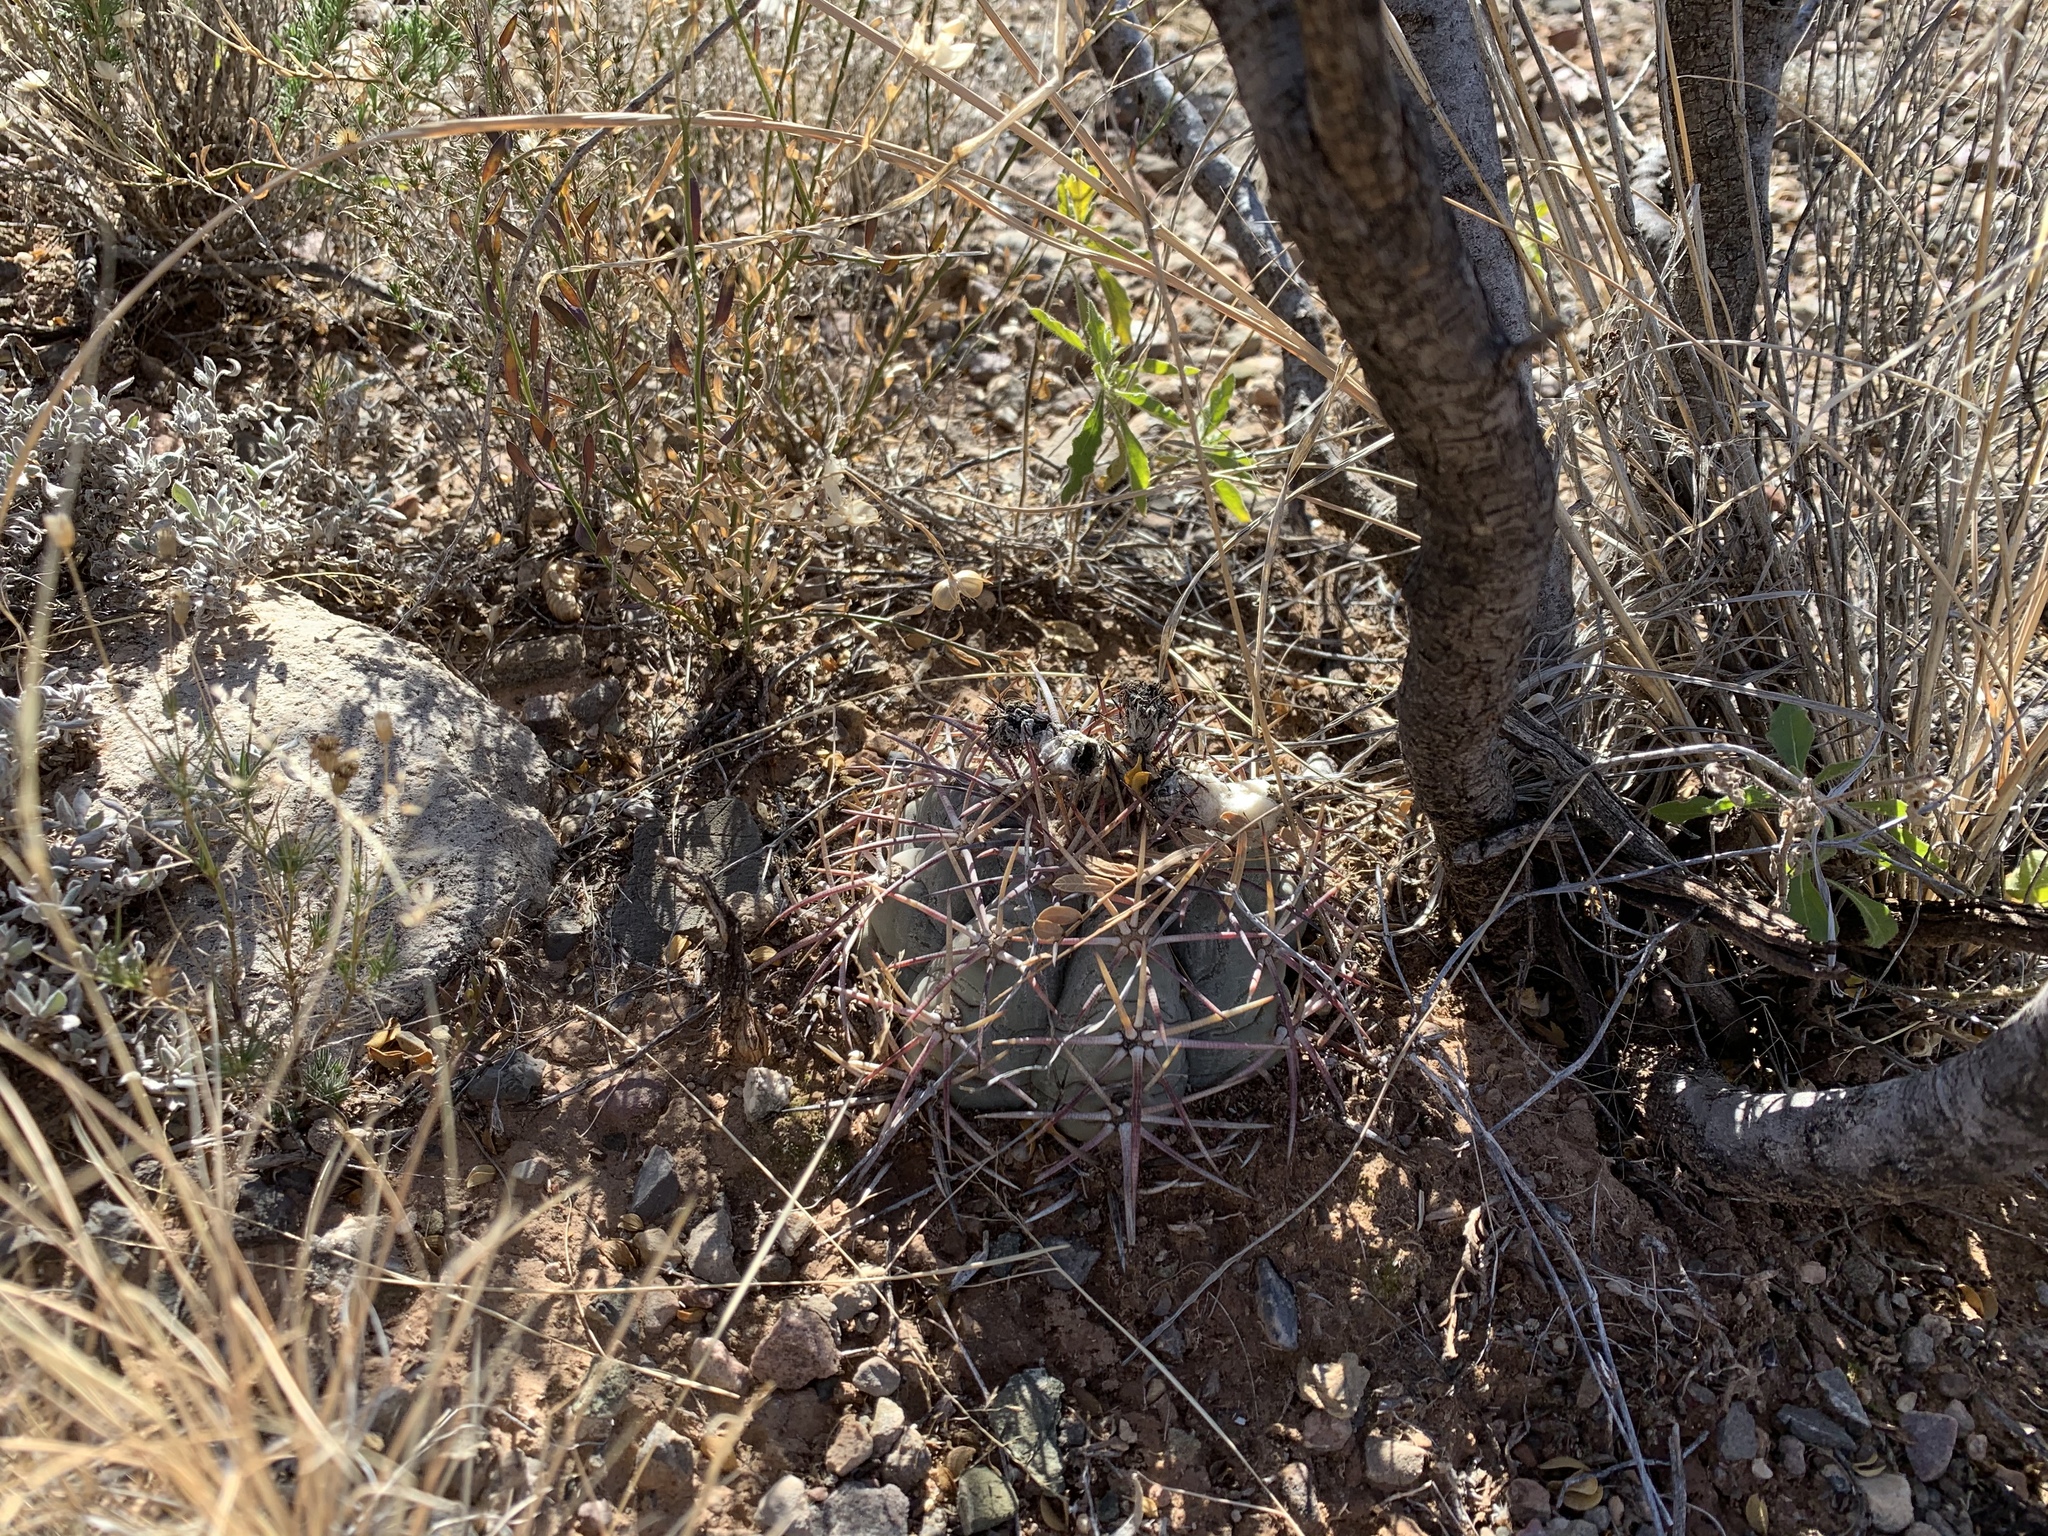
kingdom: Plantae
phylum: Tracheophyta
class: Magnoliopsida
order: Caryophyllales
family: Cactaceae
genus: Echinocactus
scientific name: Echinocactus horizonthalonius
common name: Devilshead
